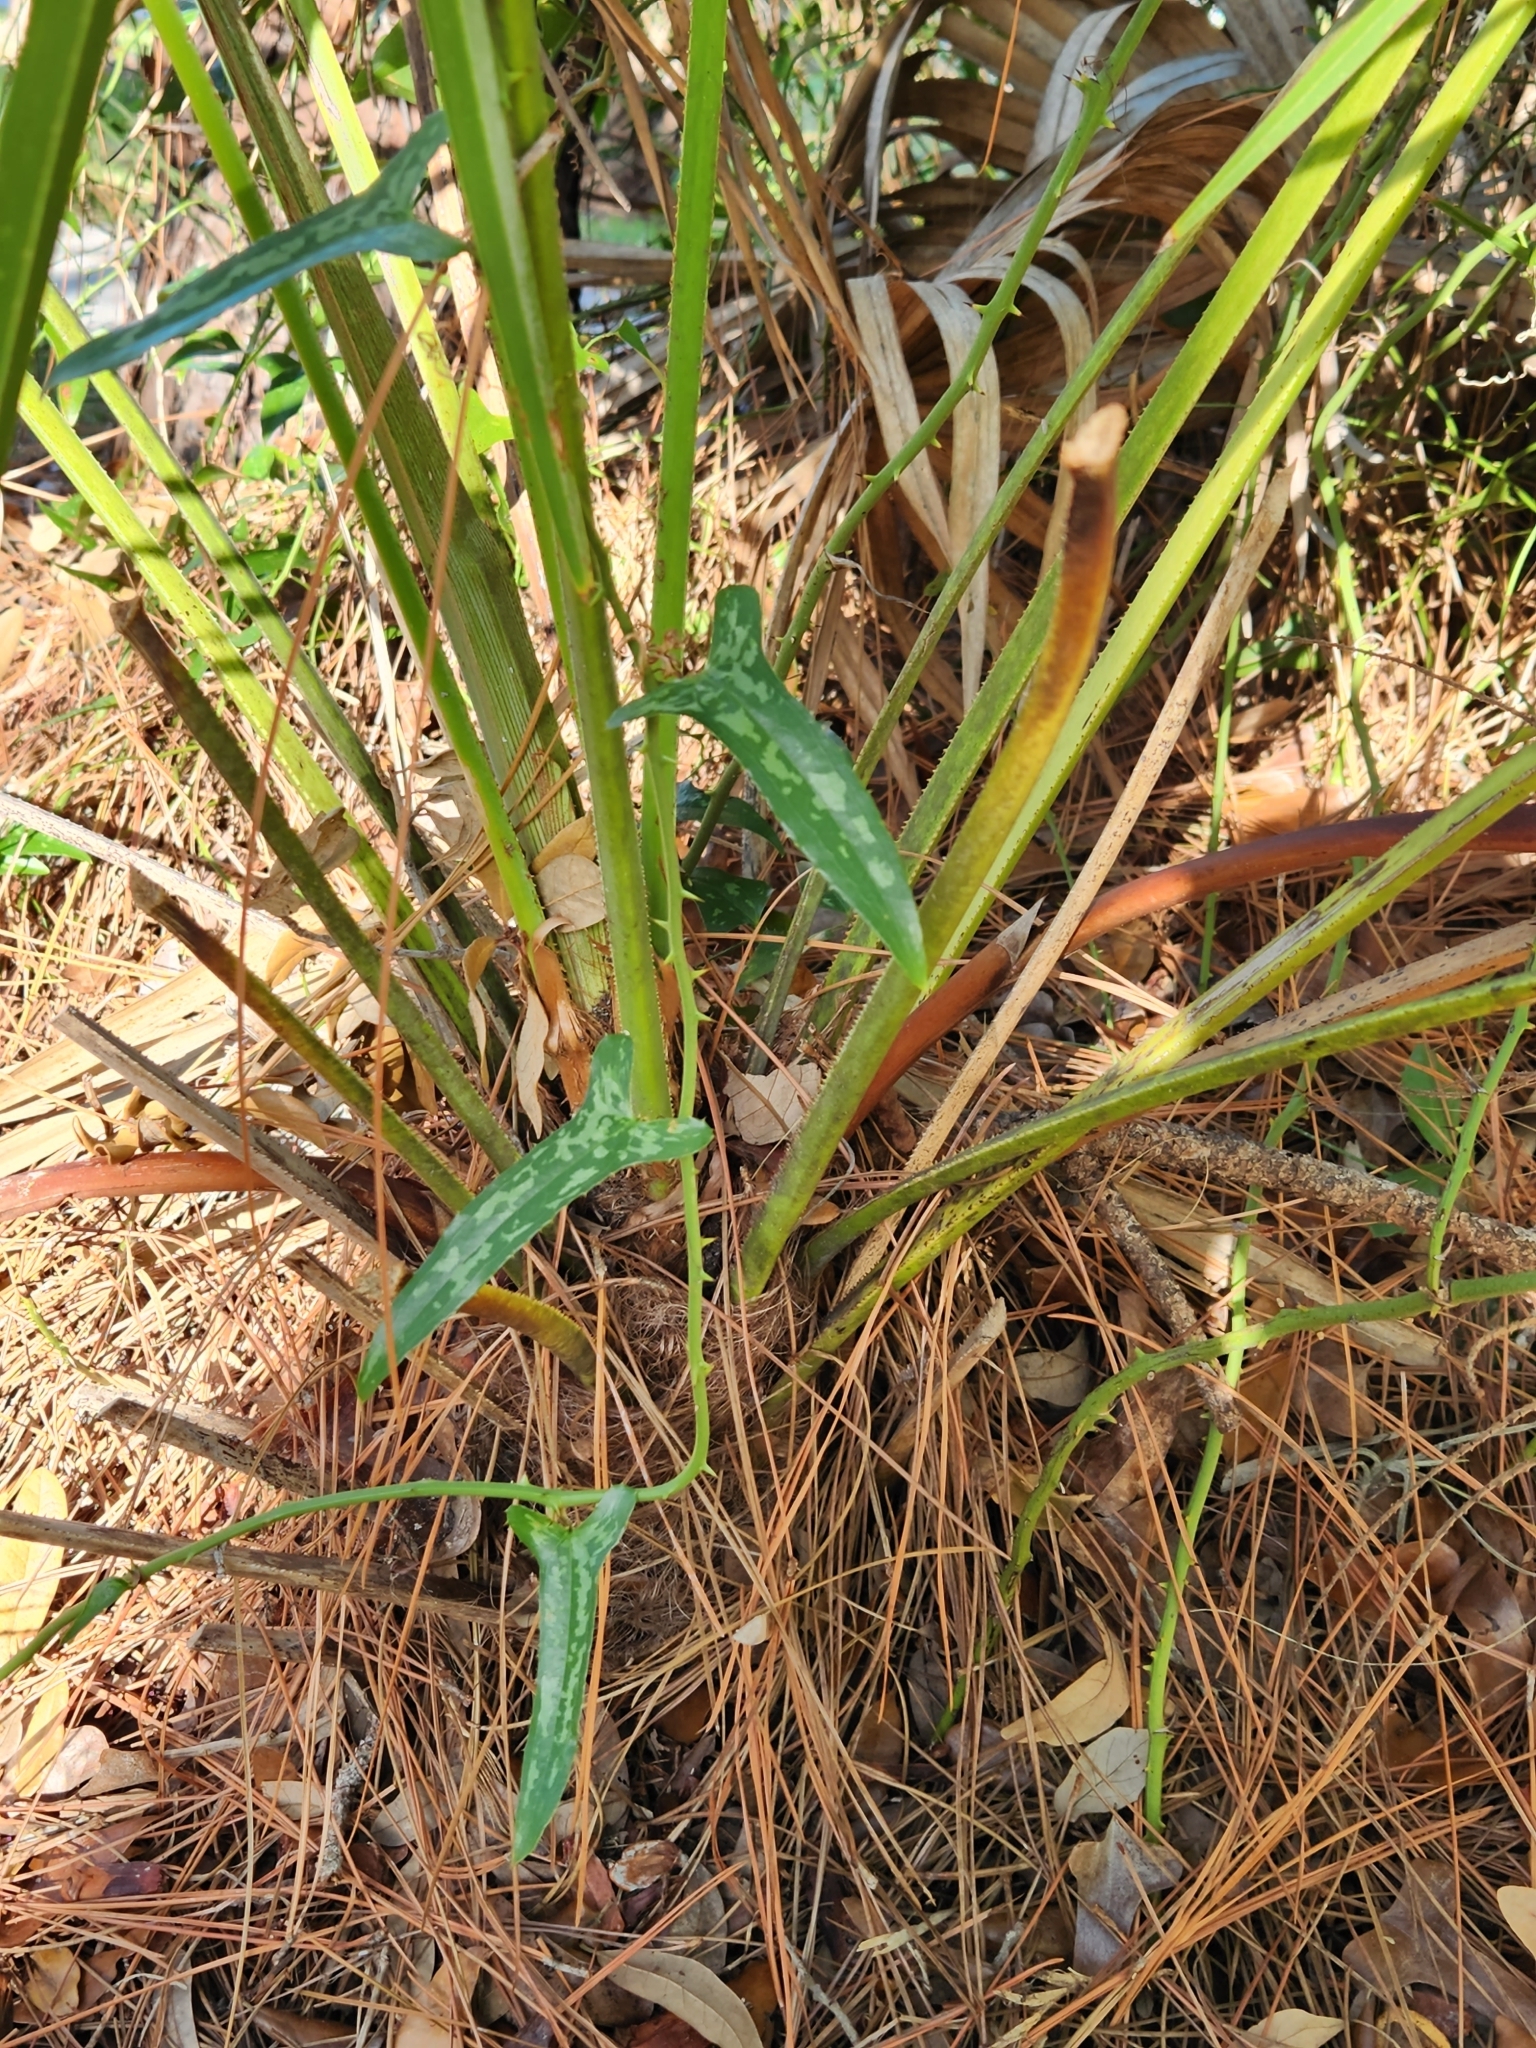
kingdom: Plantae
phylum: Tracheophyta
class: Liliopsida
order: Liliales
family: Smilacaceae
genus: Smilax
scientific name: Smilax bona-nox
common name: Catbrier
